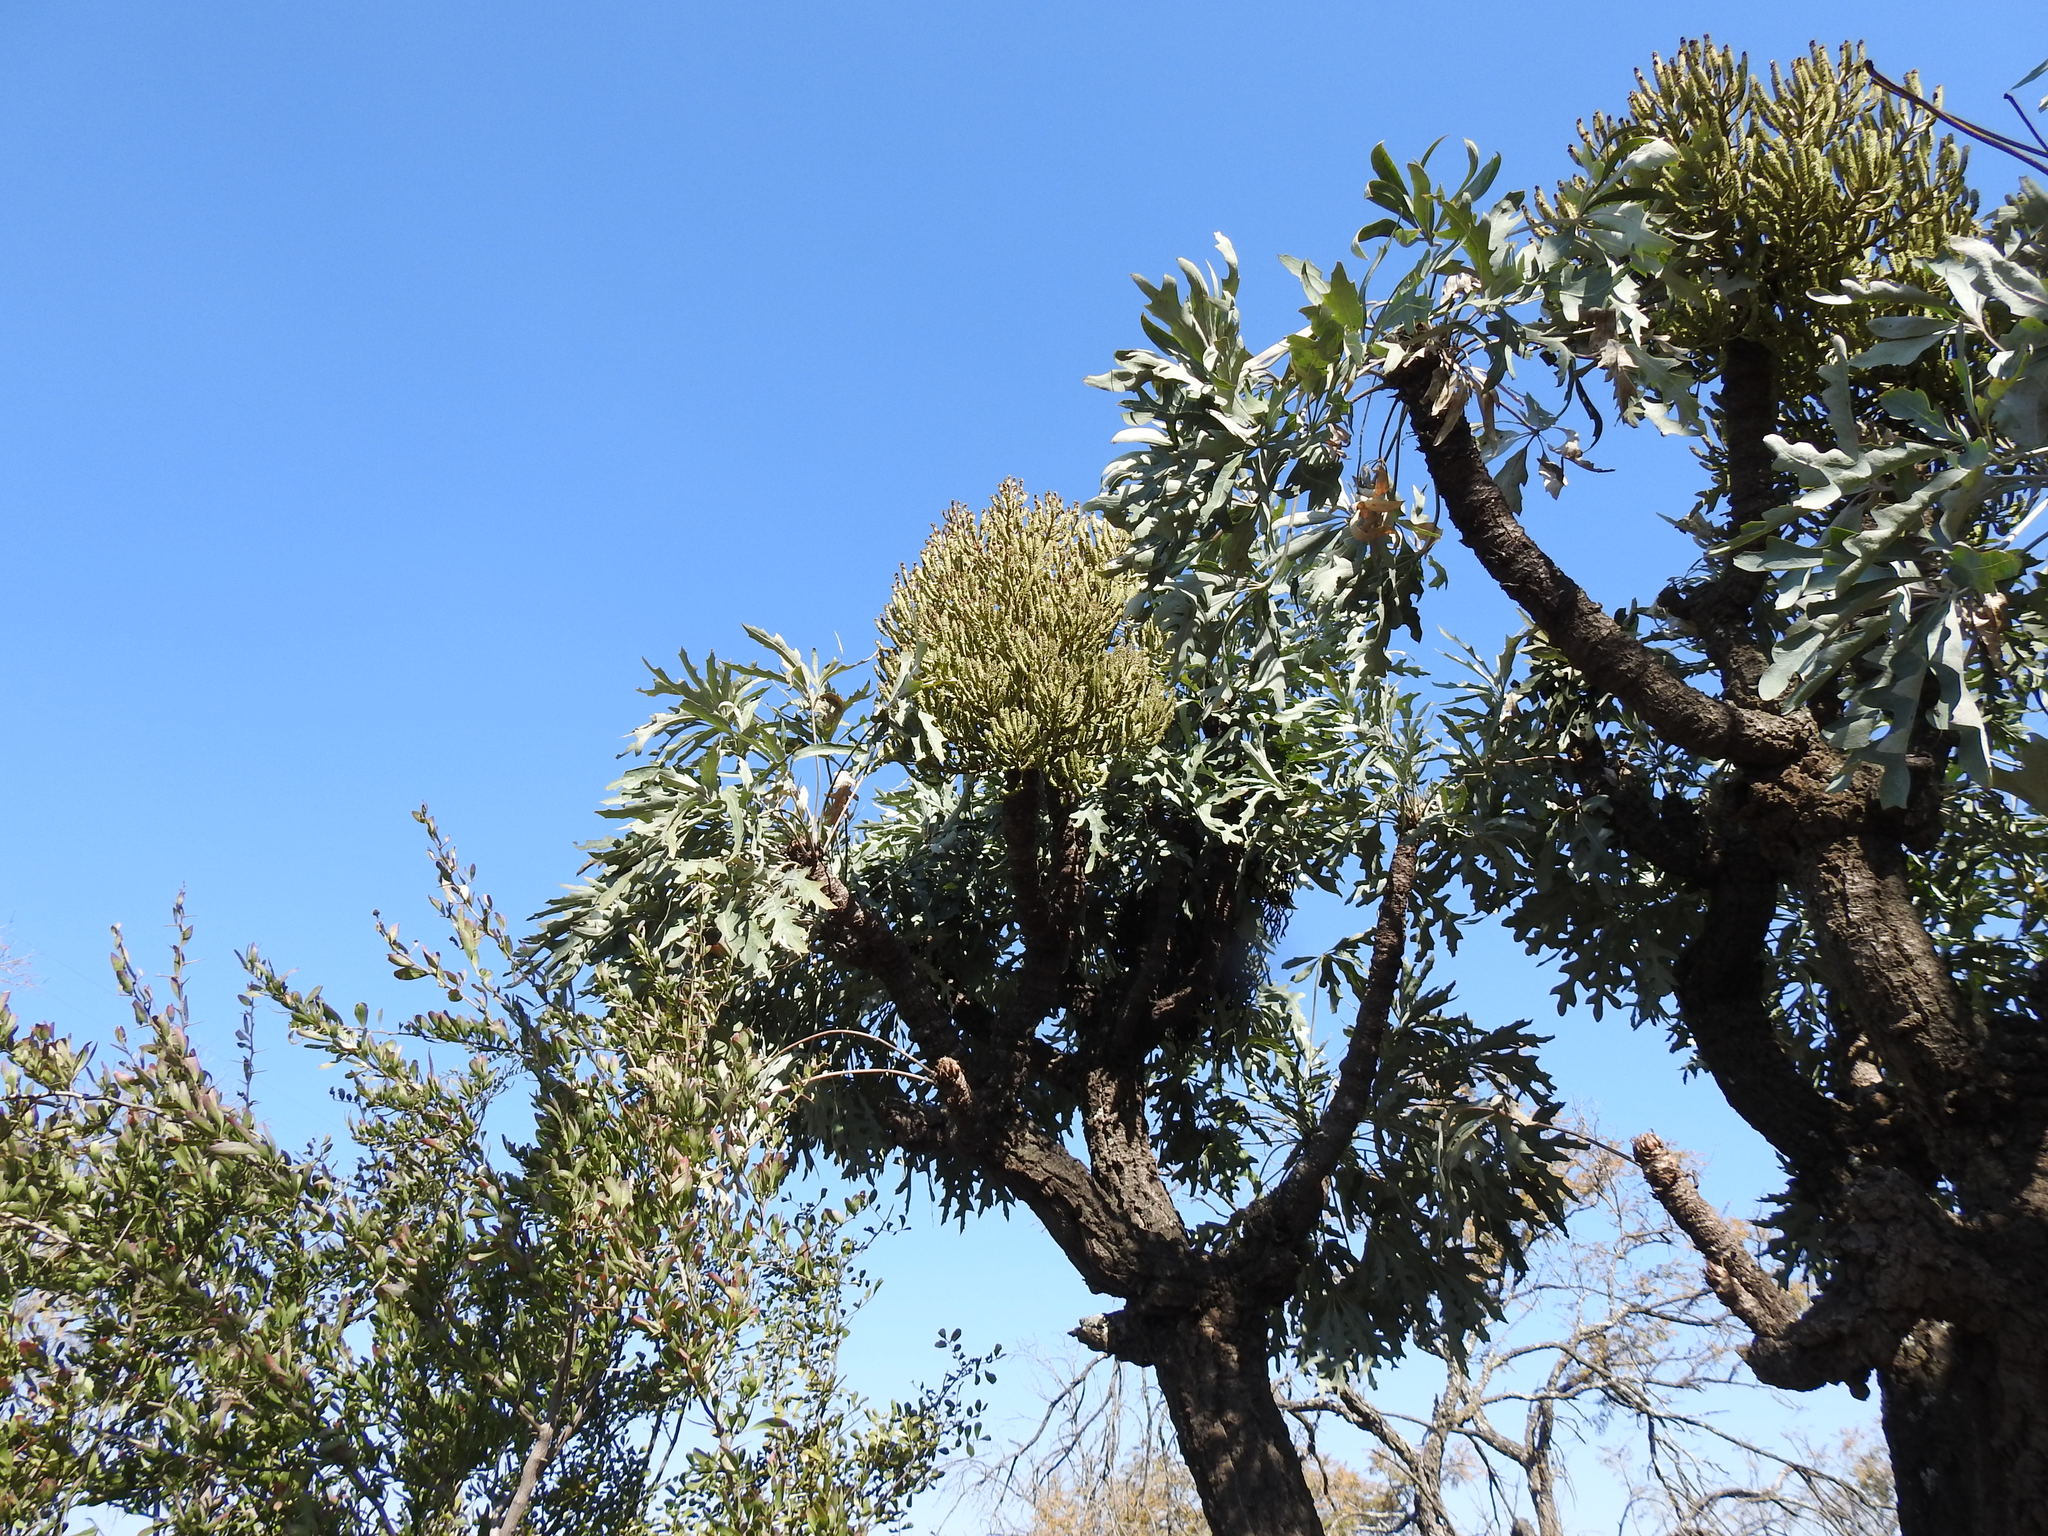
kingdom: Plantae
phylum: Tracheophyta
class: Magnoliopsida
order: Apiales
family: Araliaceae
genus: Cussonia
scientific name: Cussonia paniculata
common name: Cabbagetree
